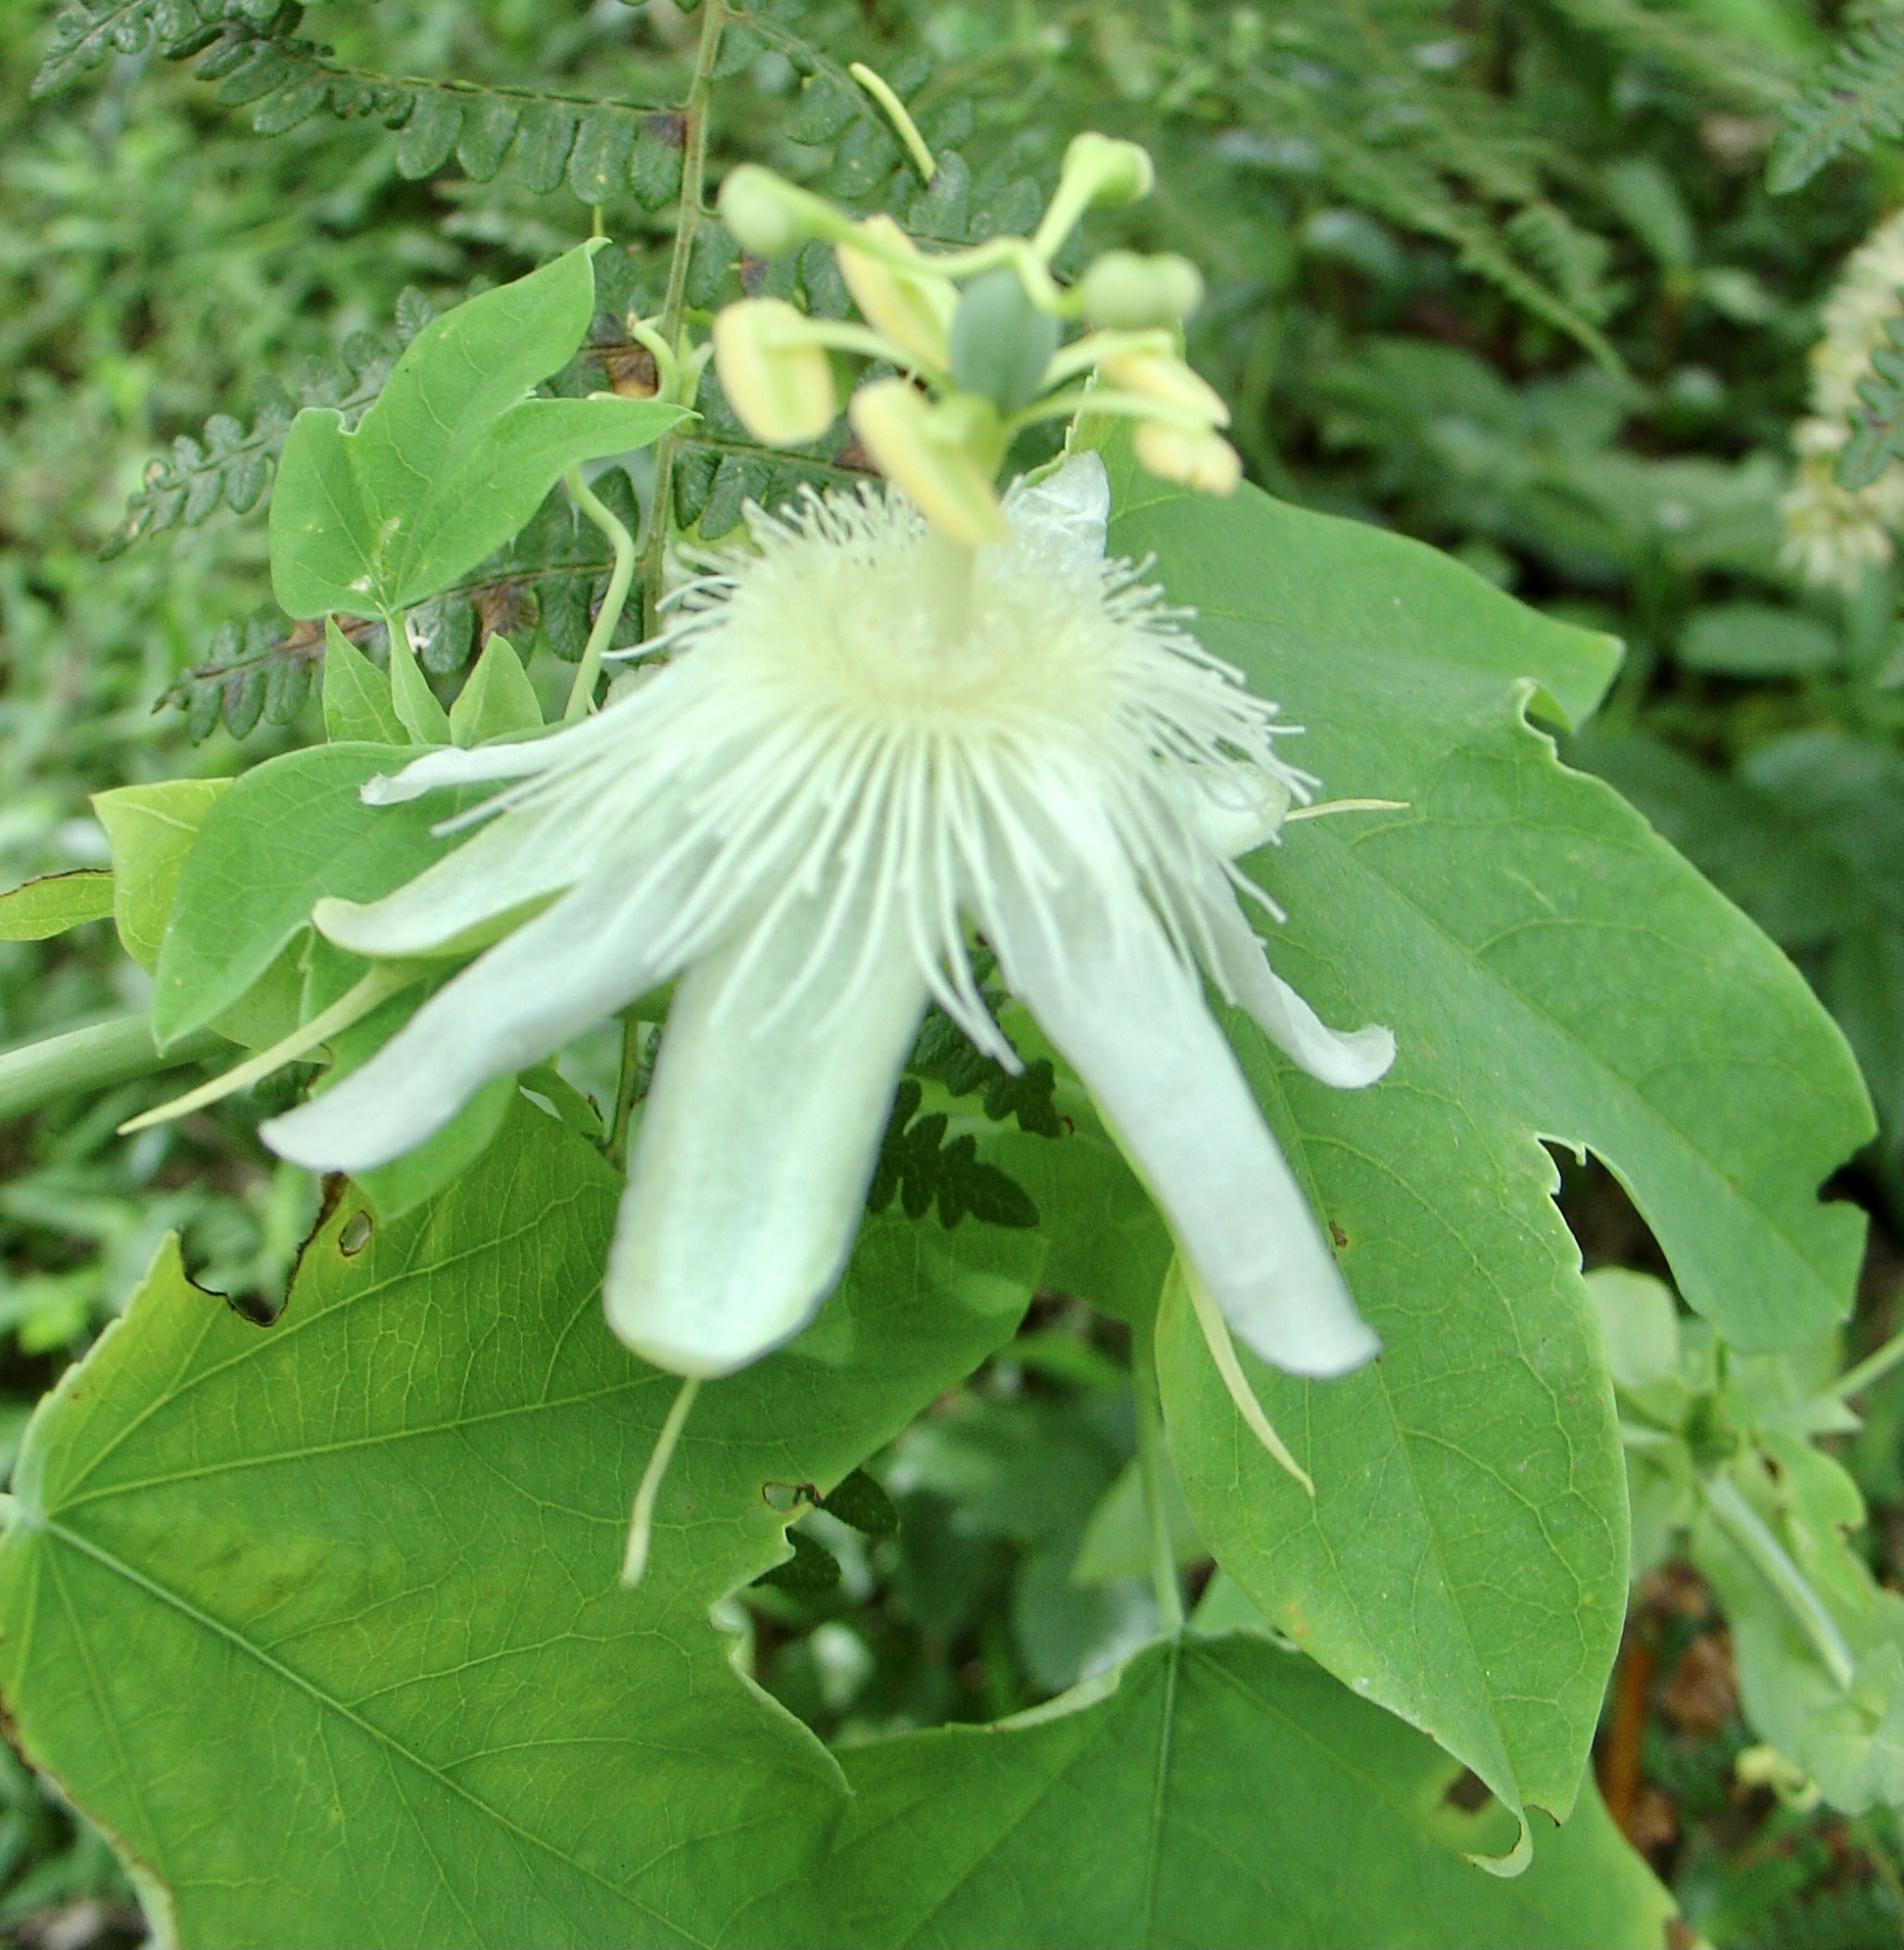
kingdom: Plantae
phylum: Tracheophyta
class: Magnoliopsida
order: Malpighiales
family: Passifloraceae
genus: Passiflora
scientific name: Passiflora subpeltata
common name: White passionflower
